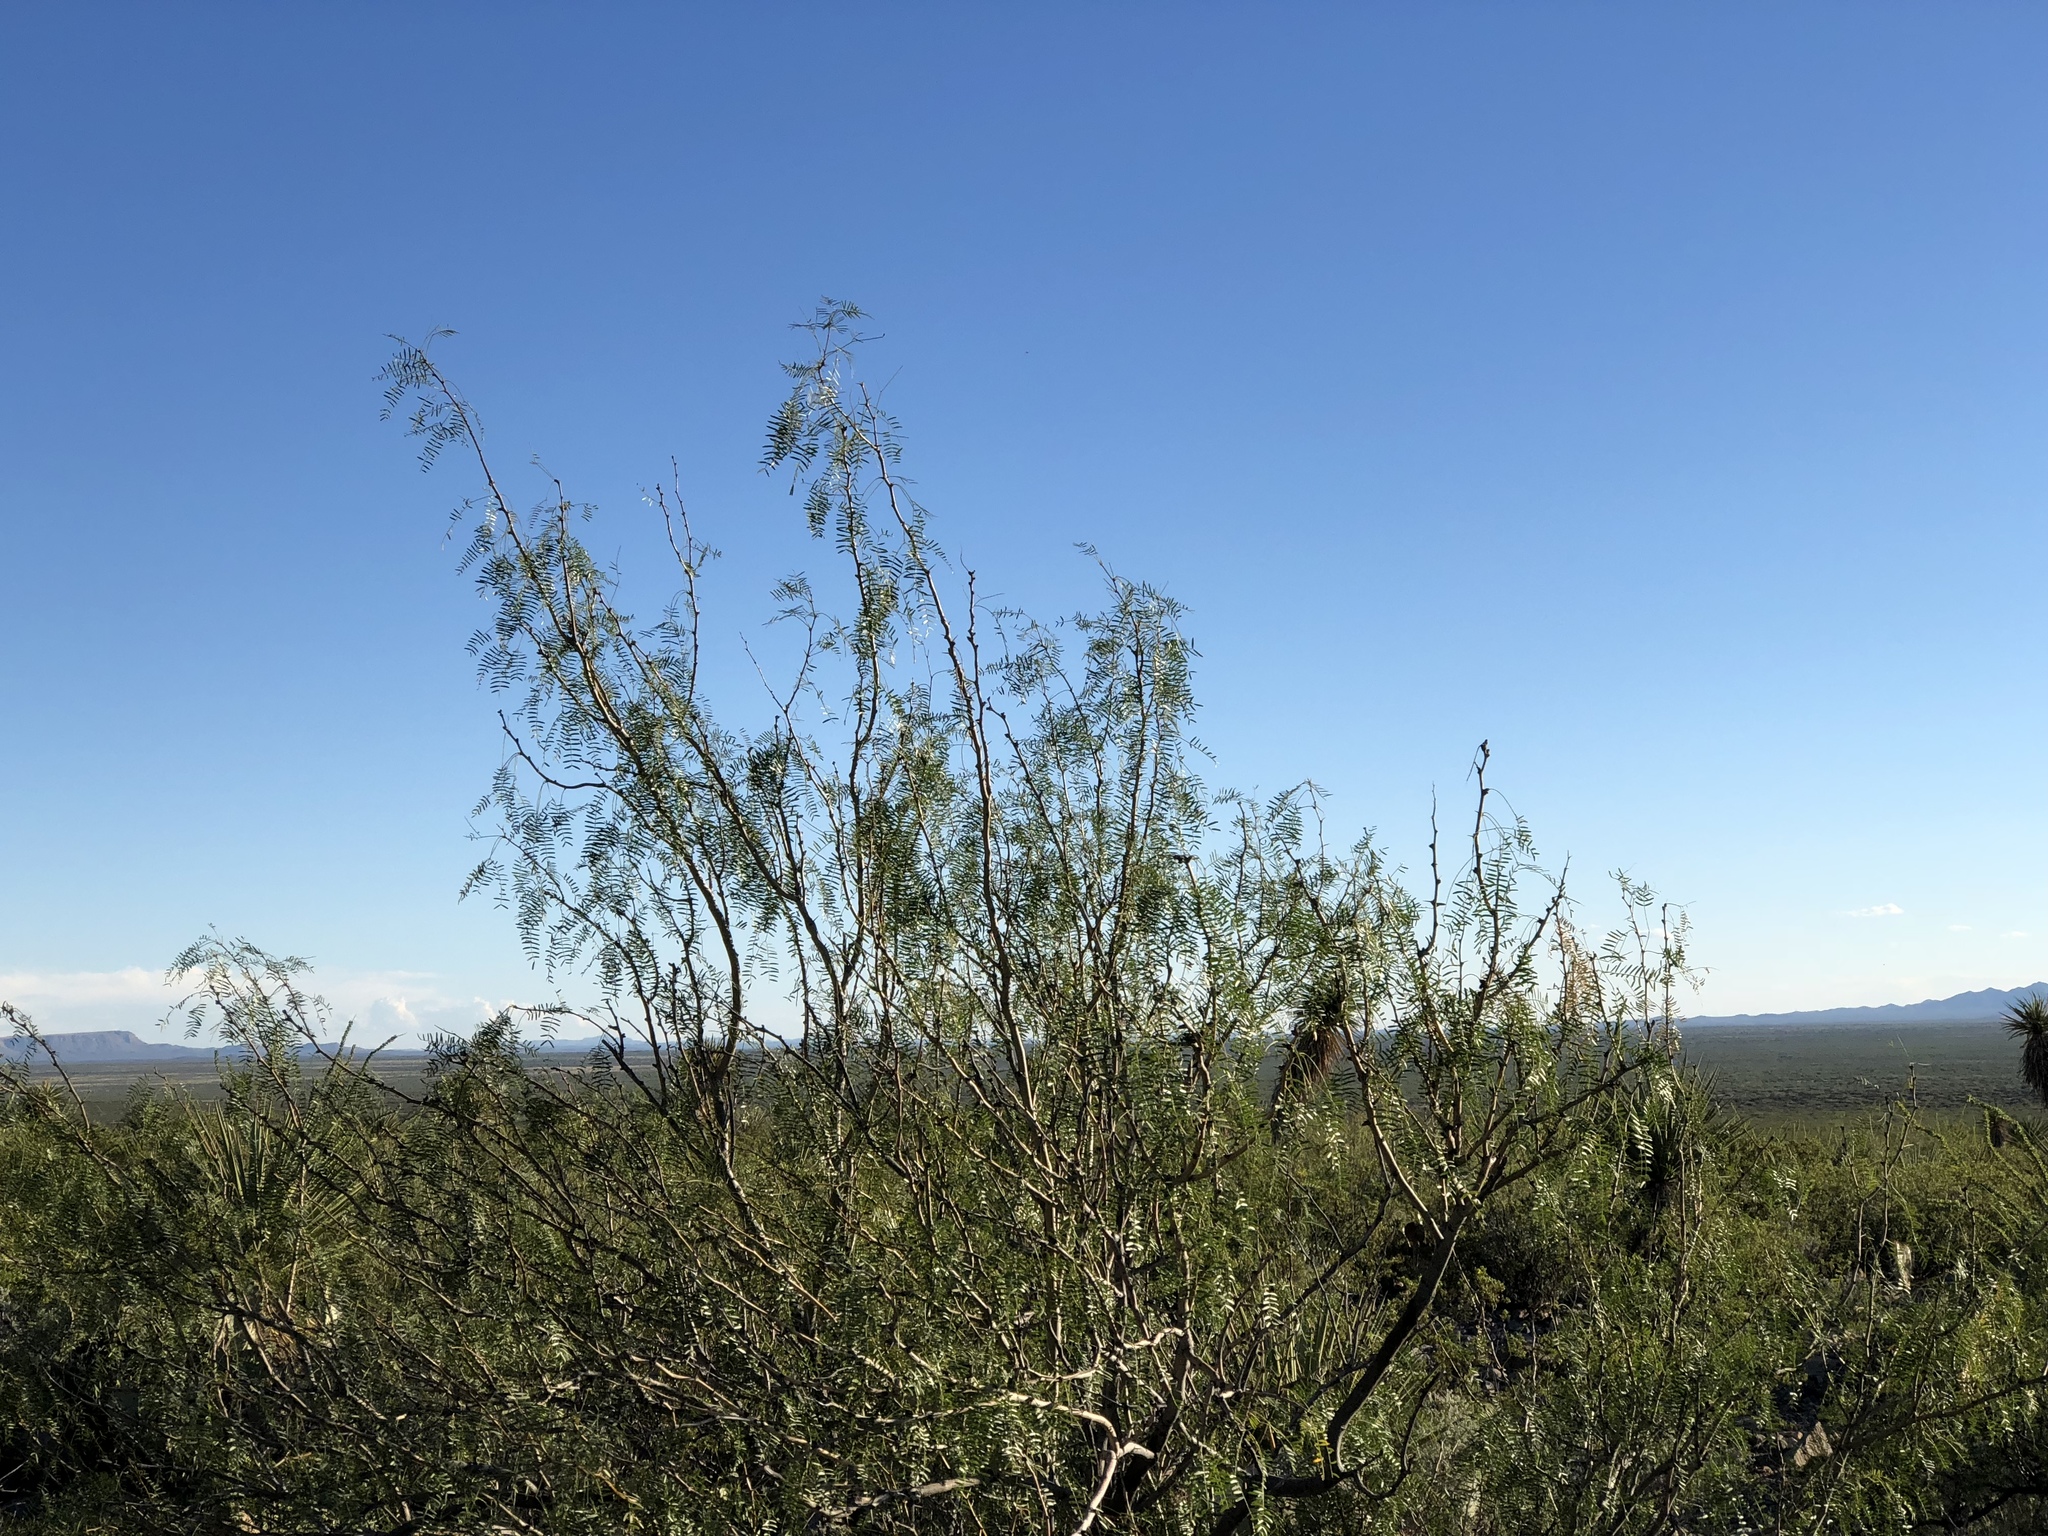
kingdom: Plantae
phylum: Tracheophyta
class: Magnoliopsida
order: Fabales
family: Fabaceae
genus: Prosopis
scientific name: Prosopis glandulosa
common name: Honey mesquite
